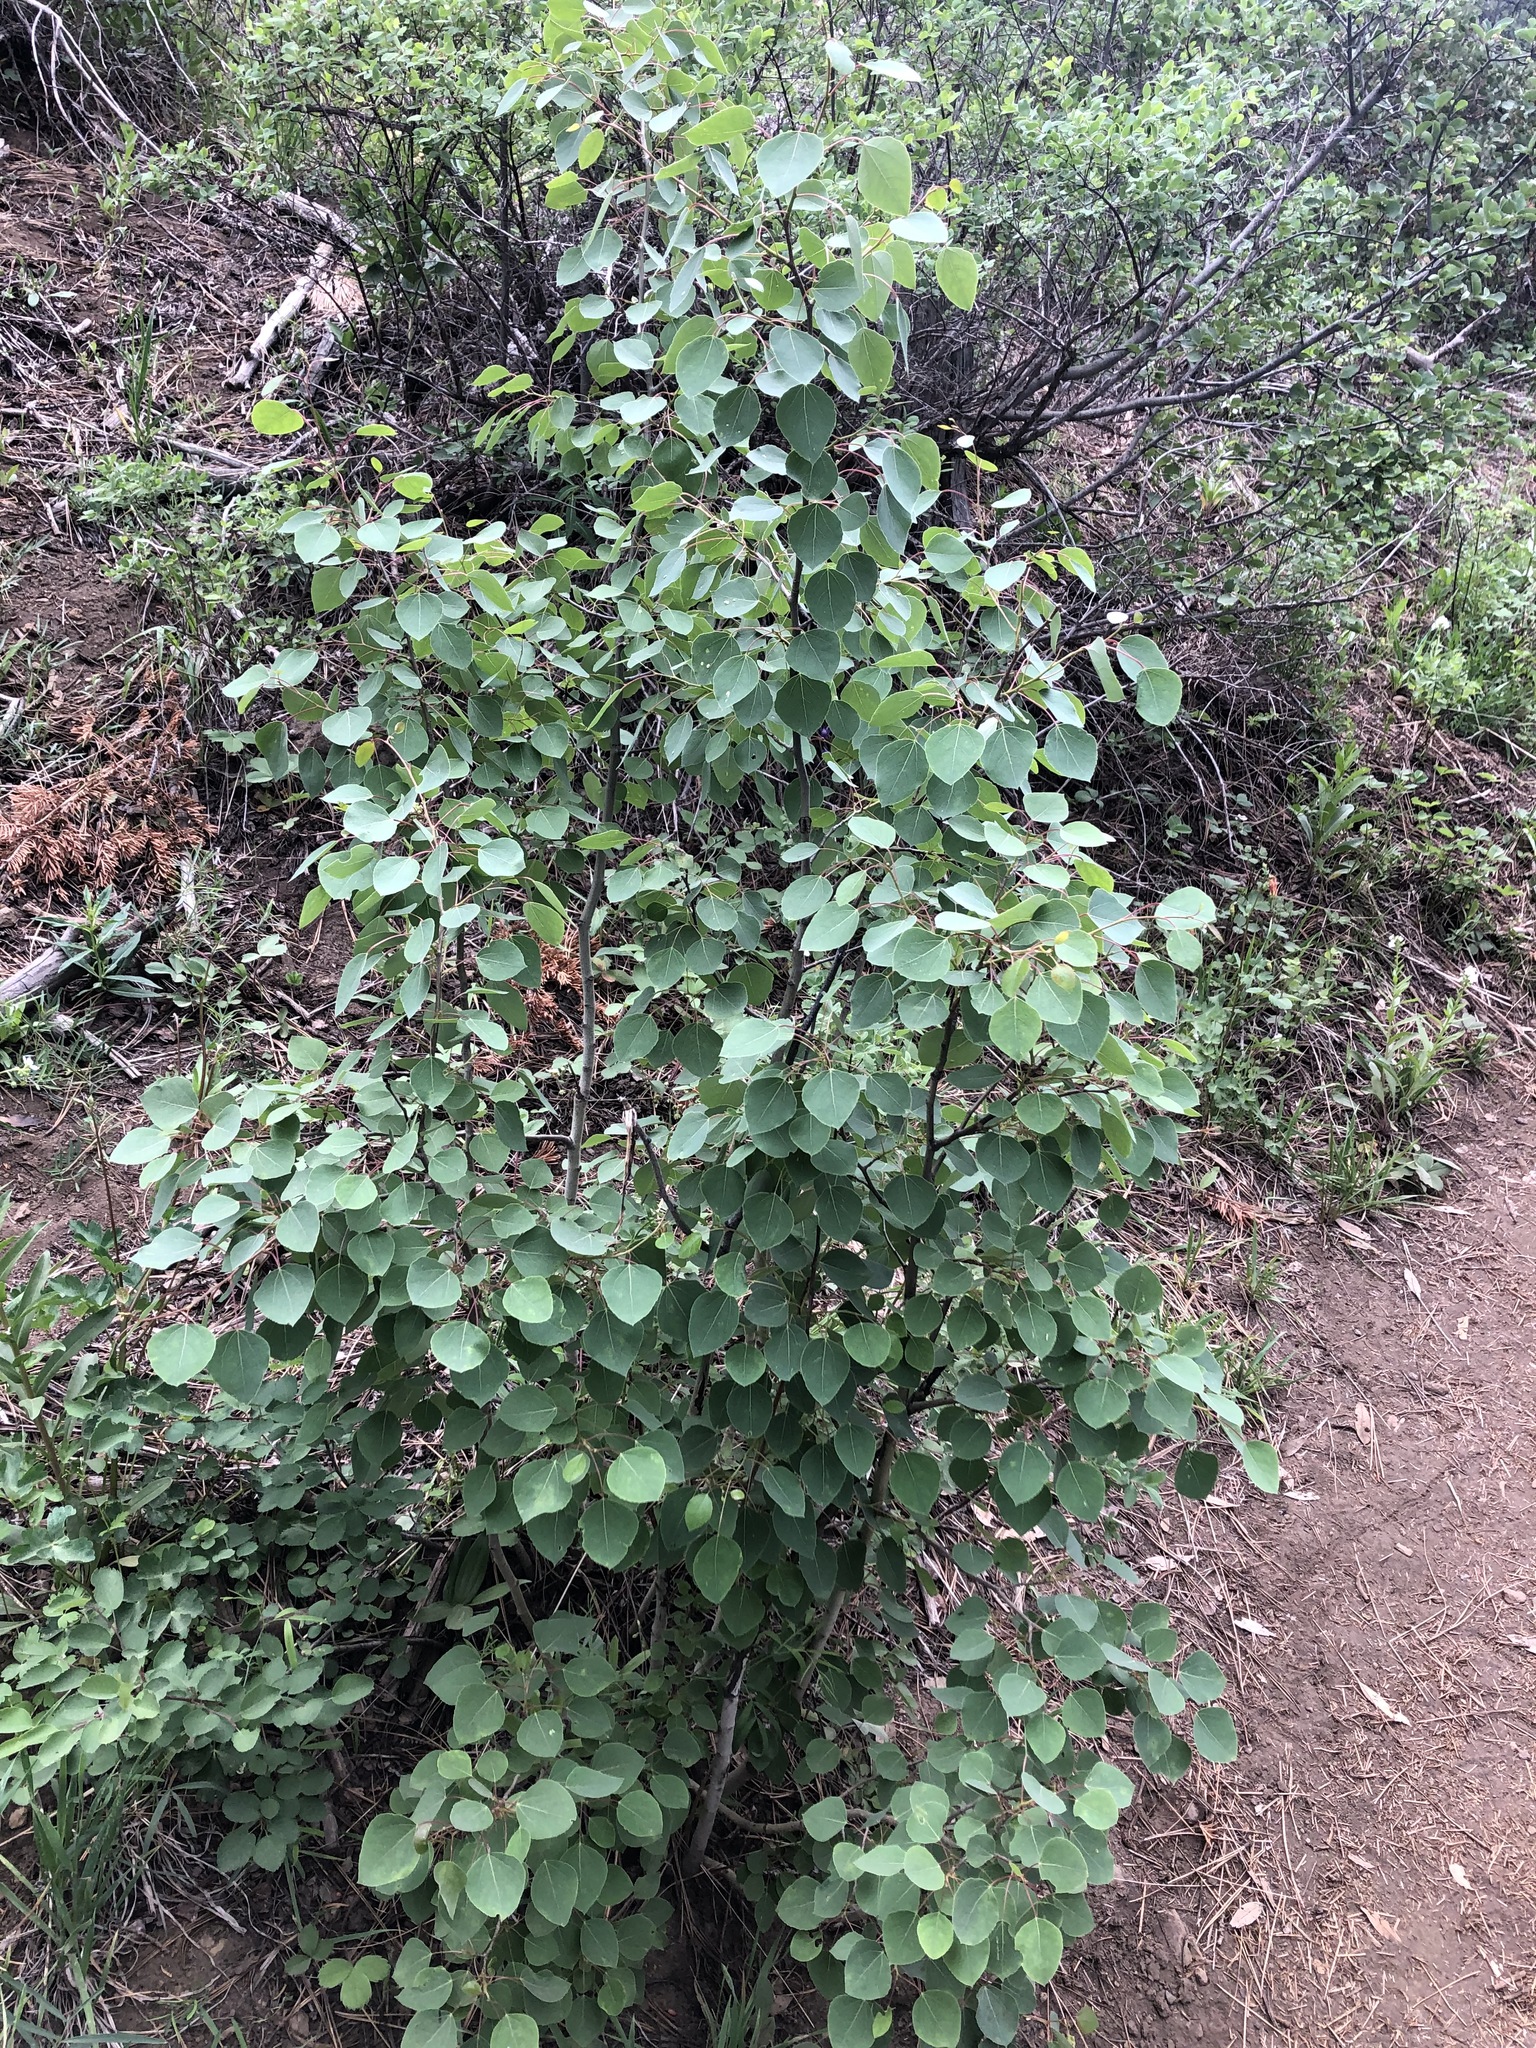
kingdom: Plantae
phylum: Tracheophyta
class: Magnoliopsida
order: Malpighiales
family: Salicaceae
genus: Populus
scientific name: Populus tremuloides
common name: Quaking aspen
